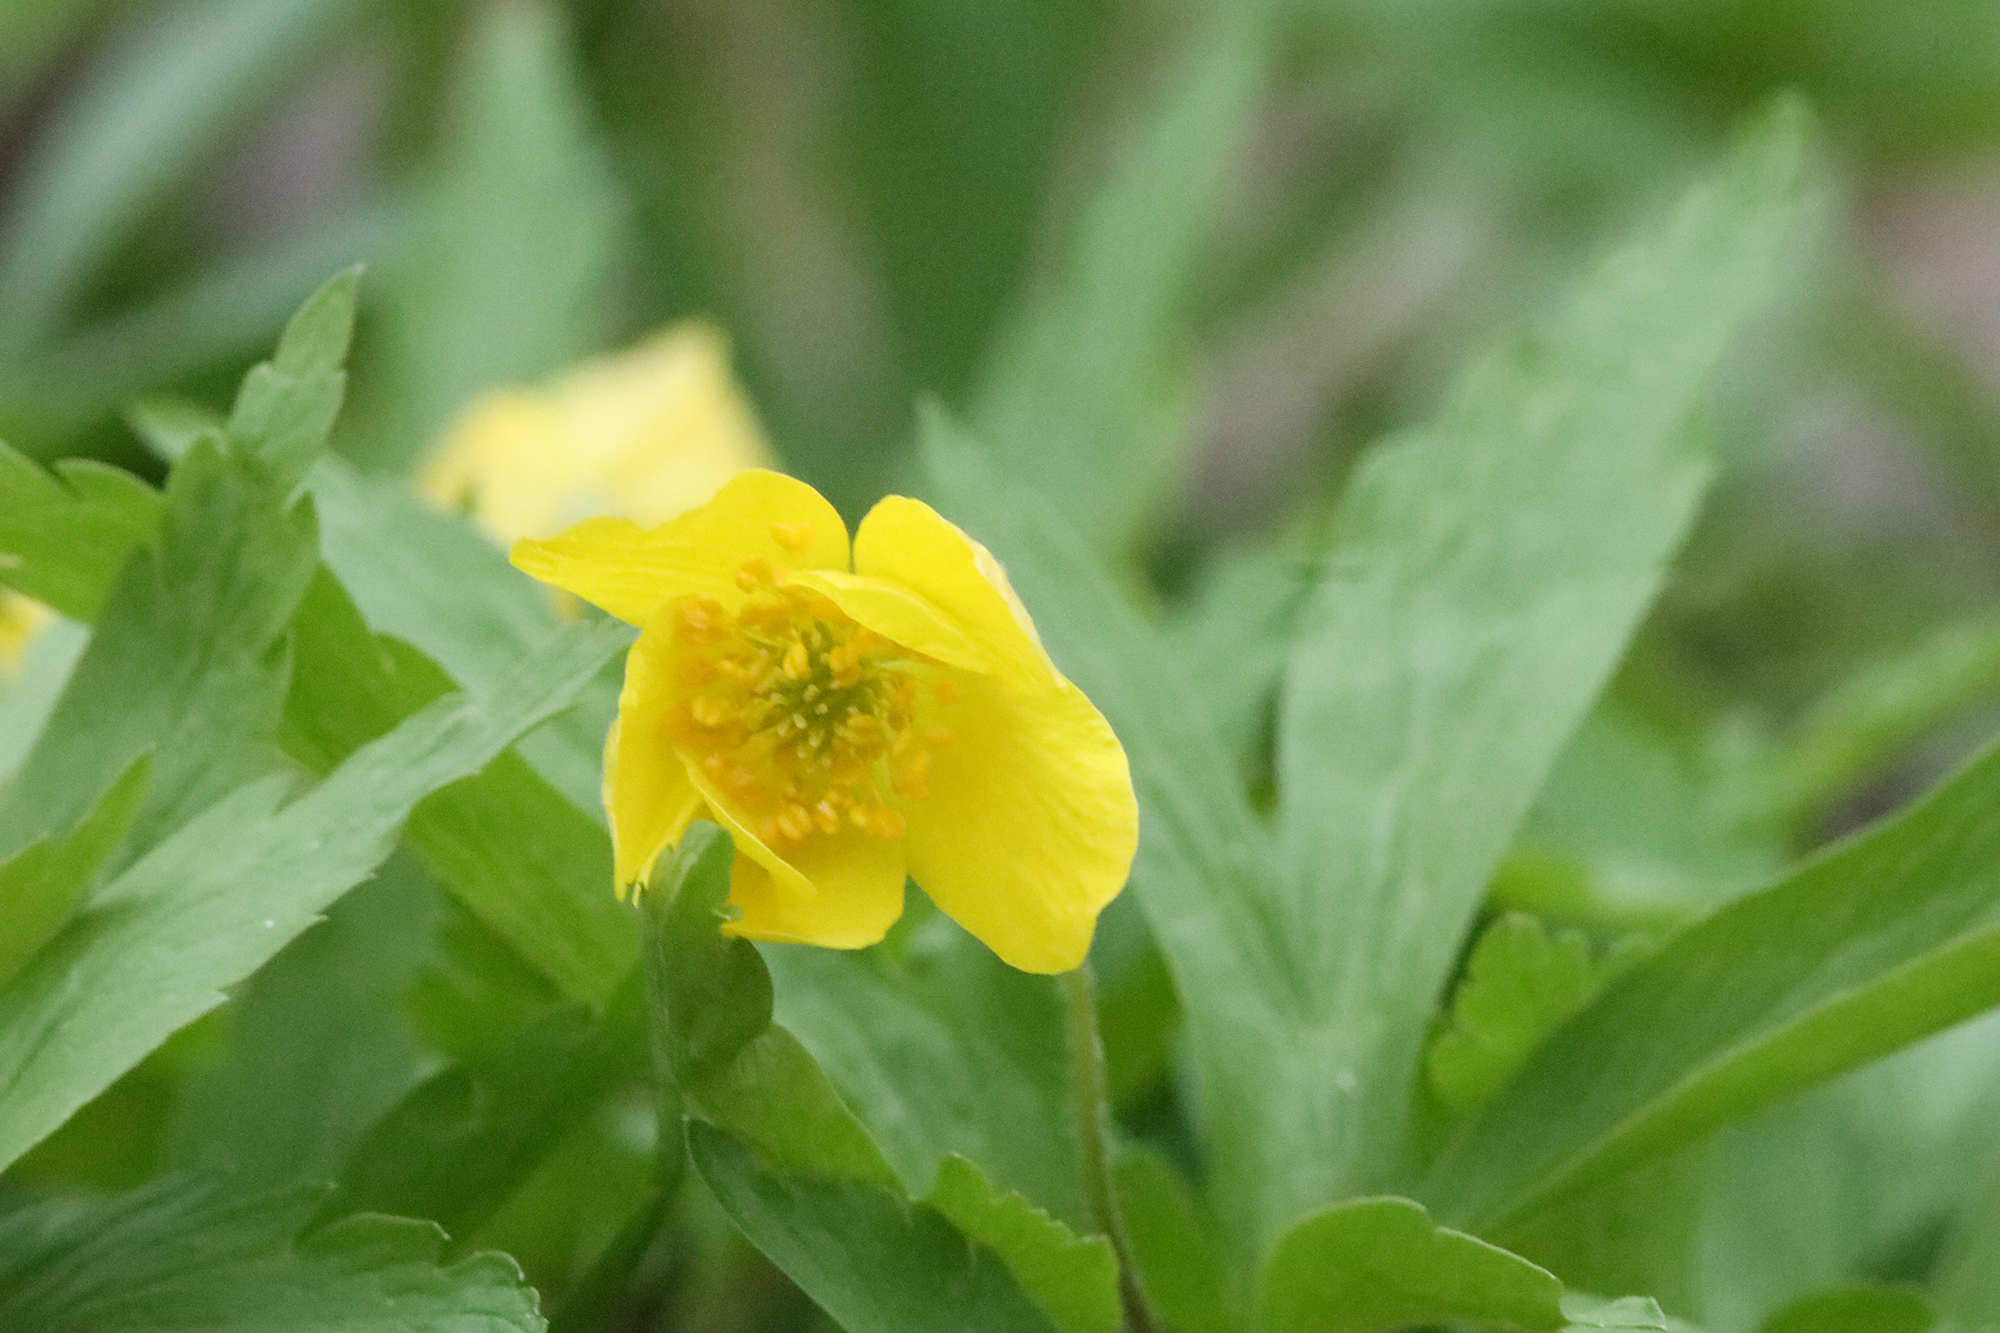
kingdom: Plantae
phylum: Tracheophyta
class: Magnoliopsida
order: Ranunculales
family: Ranunculaceae
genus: Anemone
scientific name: Anemone ranunculoides
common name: Yellow anemone
